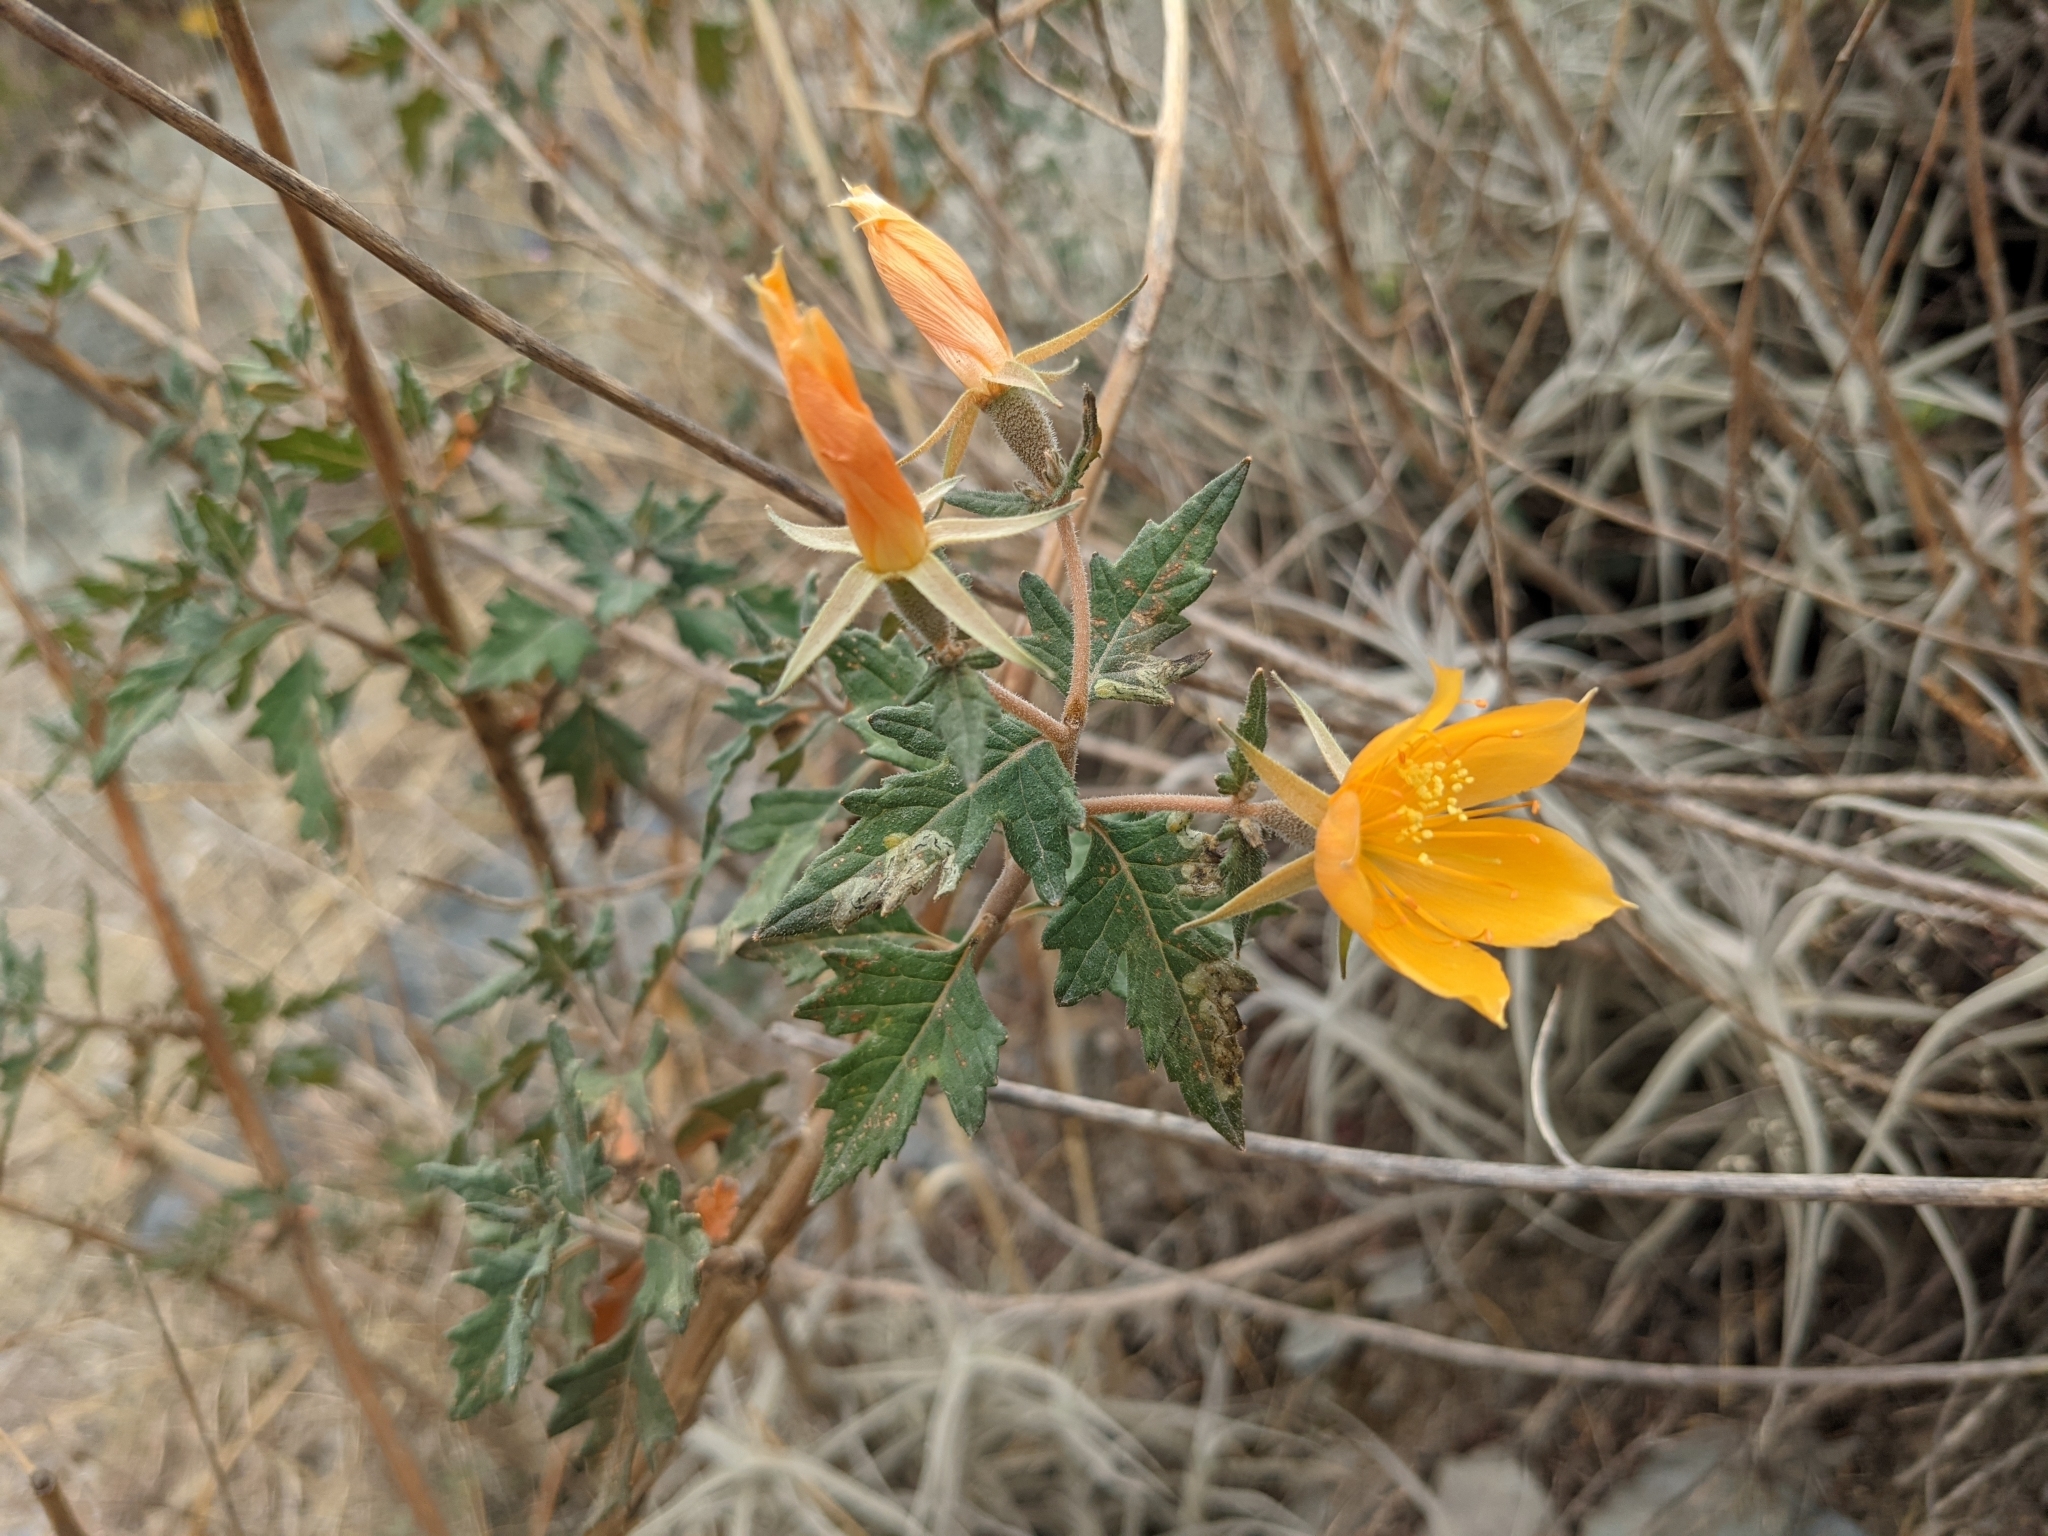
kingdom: Plantae
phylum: Tracheophyta
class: Magnoliopsida
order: Cornales
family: Loasaceae
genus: Mentzelia
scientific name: Mentzelia scabra
